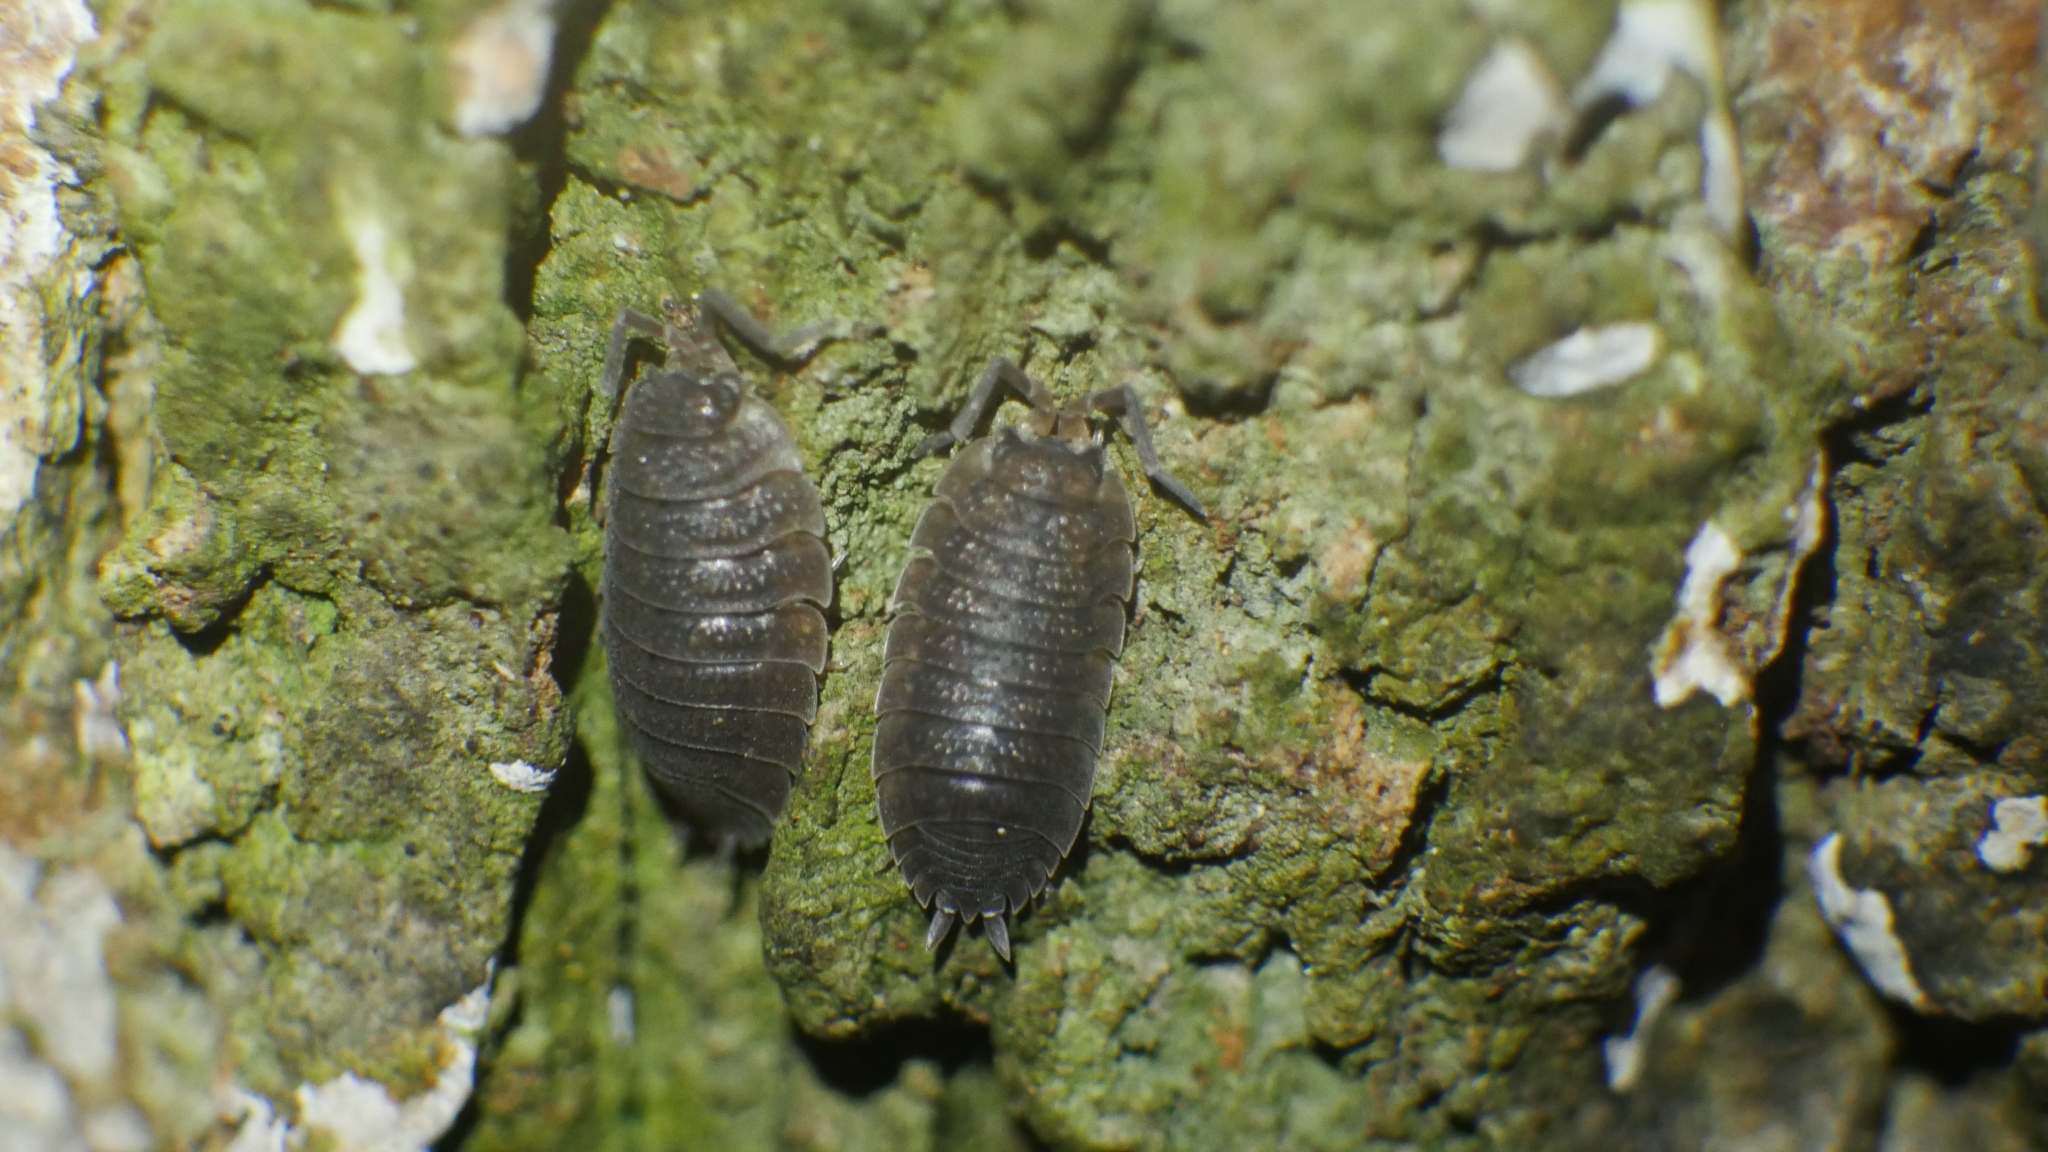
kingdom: Animalia
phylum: Arthropoda
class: Malacostraca
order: Isopoda
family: Porcellionidae
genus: Porcellio
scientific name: Porcellio scaber
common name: Common rough woodlouse
